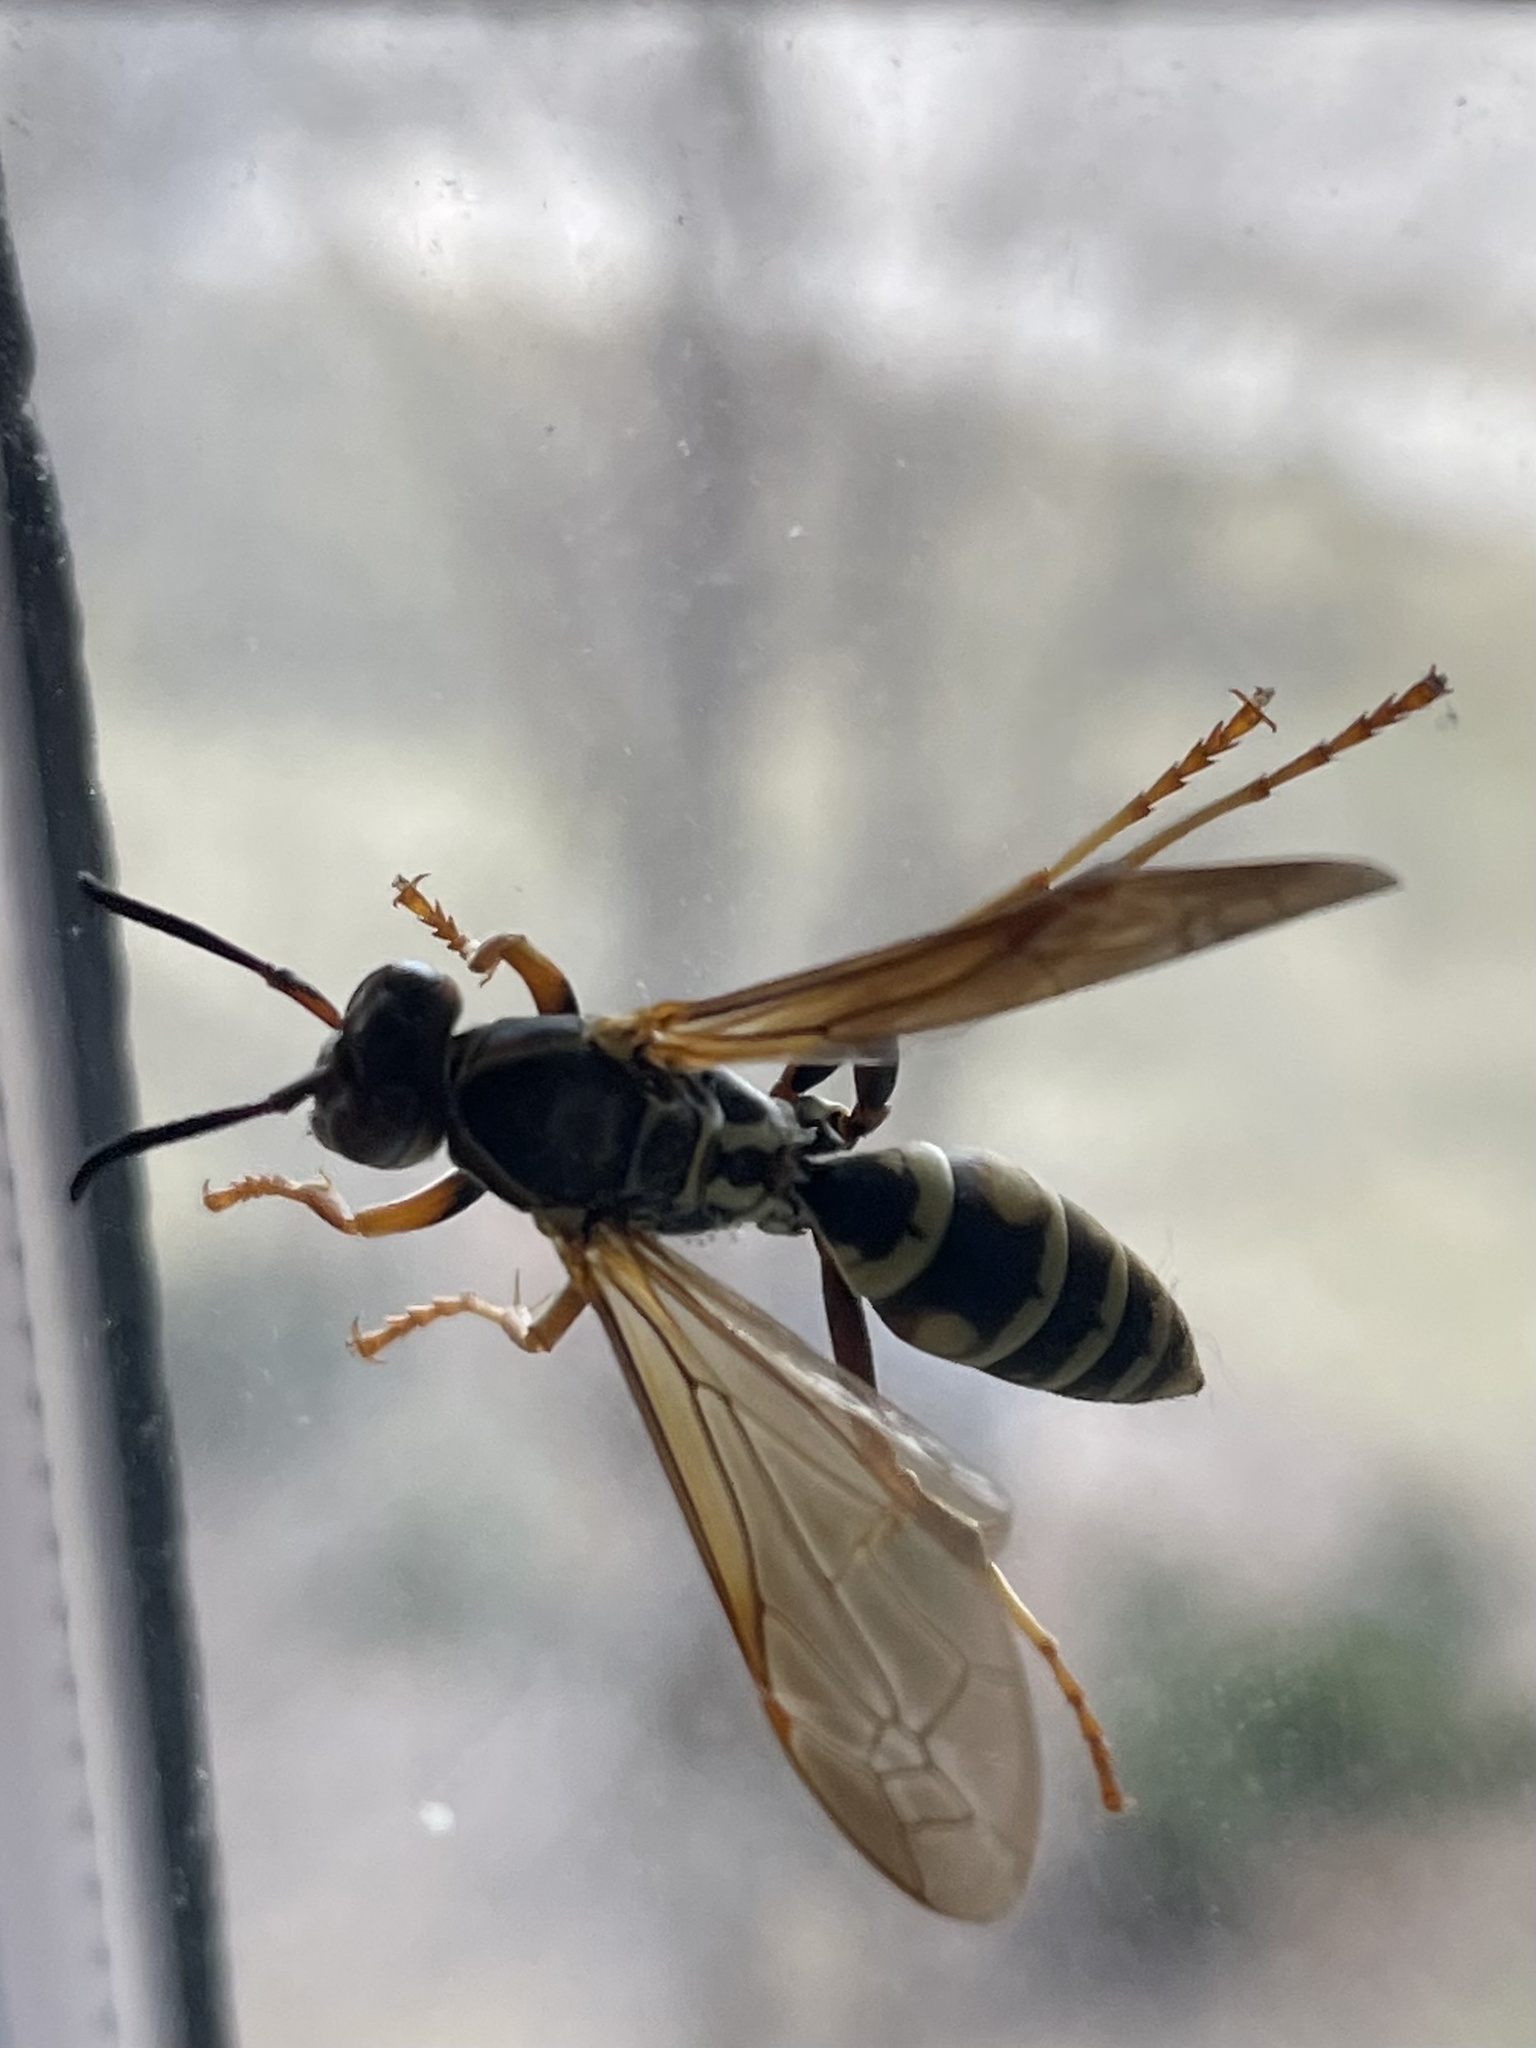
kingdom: Animalia
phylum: Arthropoda
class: Insecta
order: Hymenoptera
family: Eumenidae
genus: Polistes
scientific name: Polistes fuscatus
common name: Dark paper wasp
